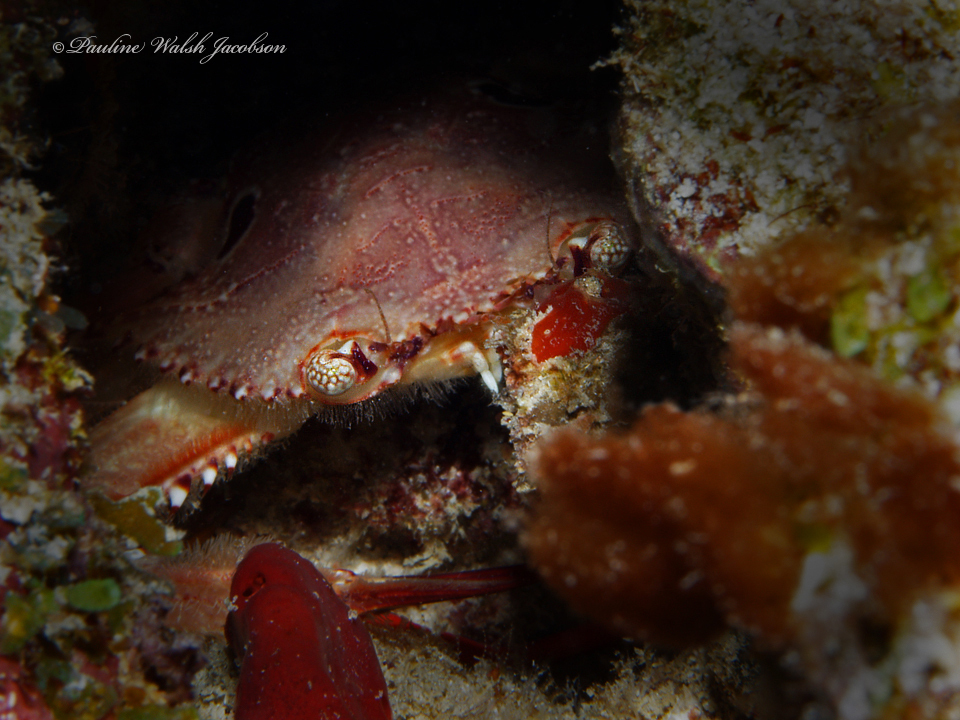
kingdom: Animalia
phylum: Arthropoda
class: Malacostraca
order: Decapoda
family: Portunidae
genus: Achelous
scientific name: Achelous sebae
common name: Ocellate swimming crab
